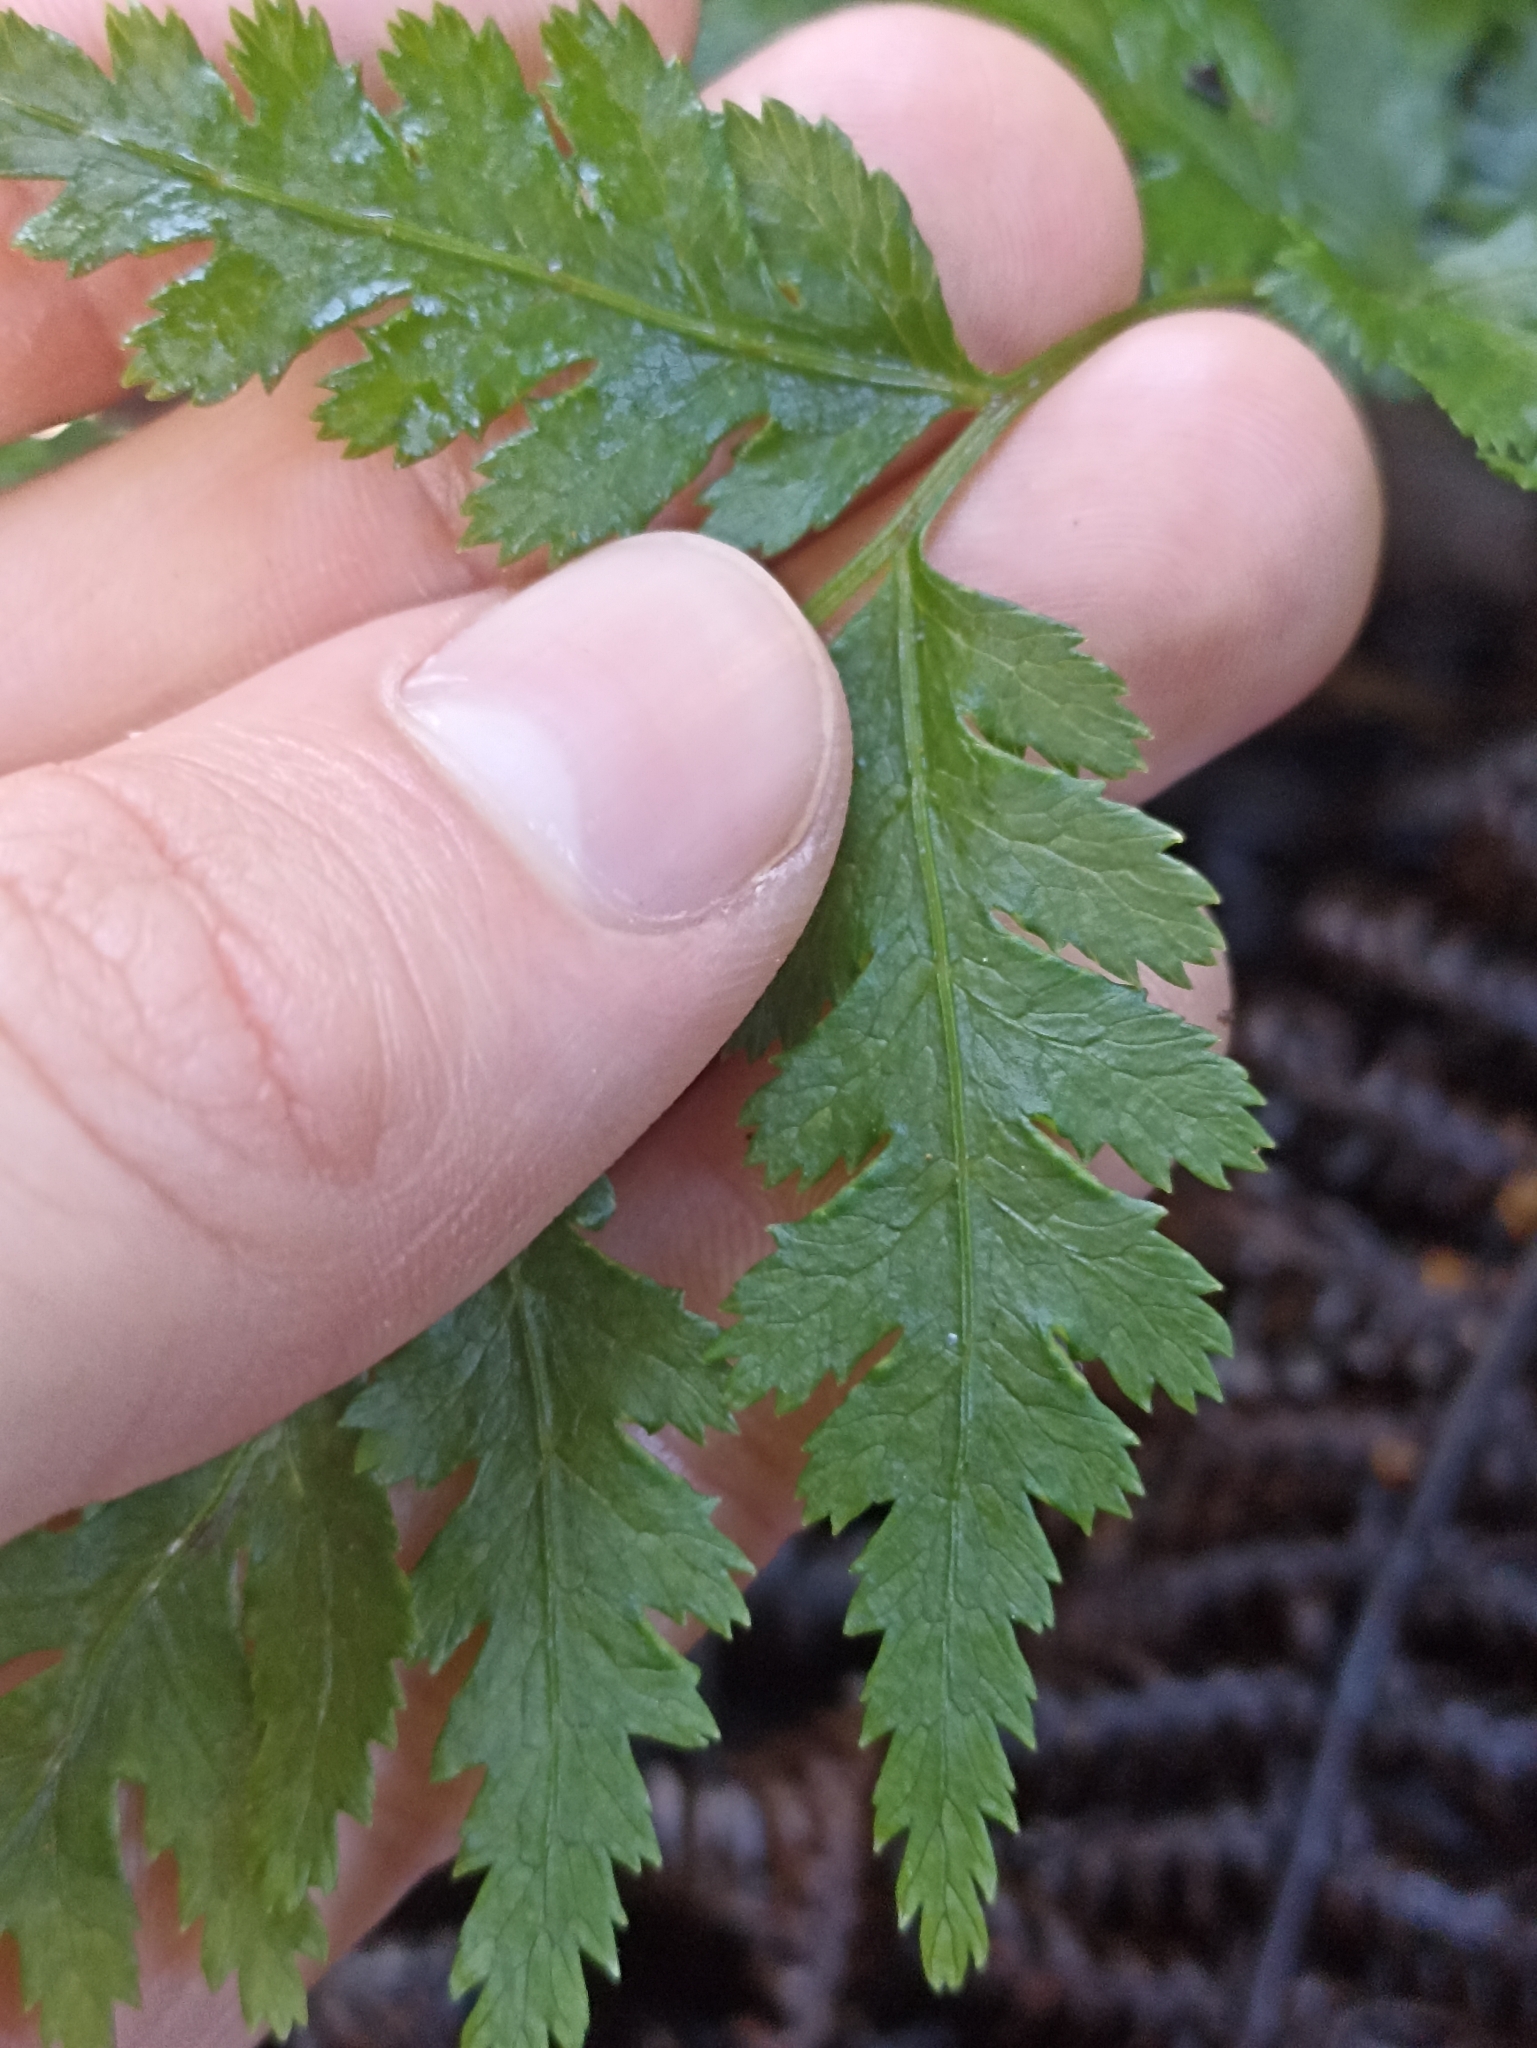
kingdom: Plantae
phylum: Tracheophyta
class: Polypodiopsida
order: Polypodiales
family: Pteridaceae
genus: Pteris
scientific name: Pteris macilenta
